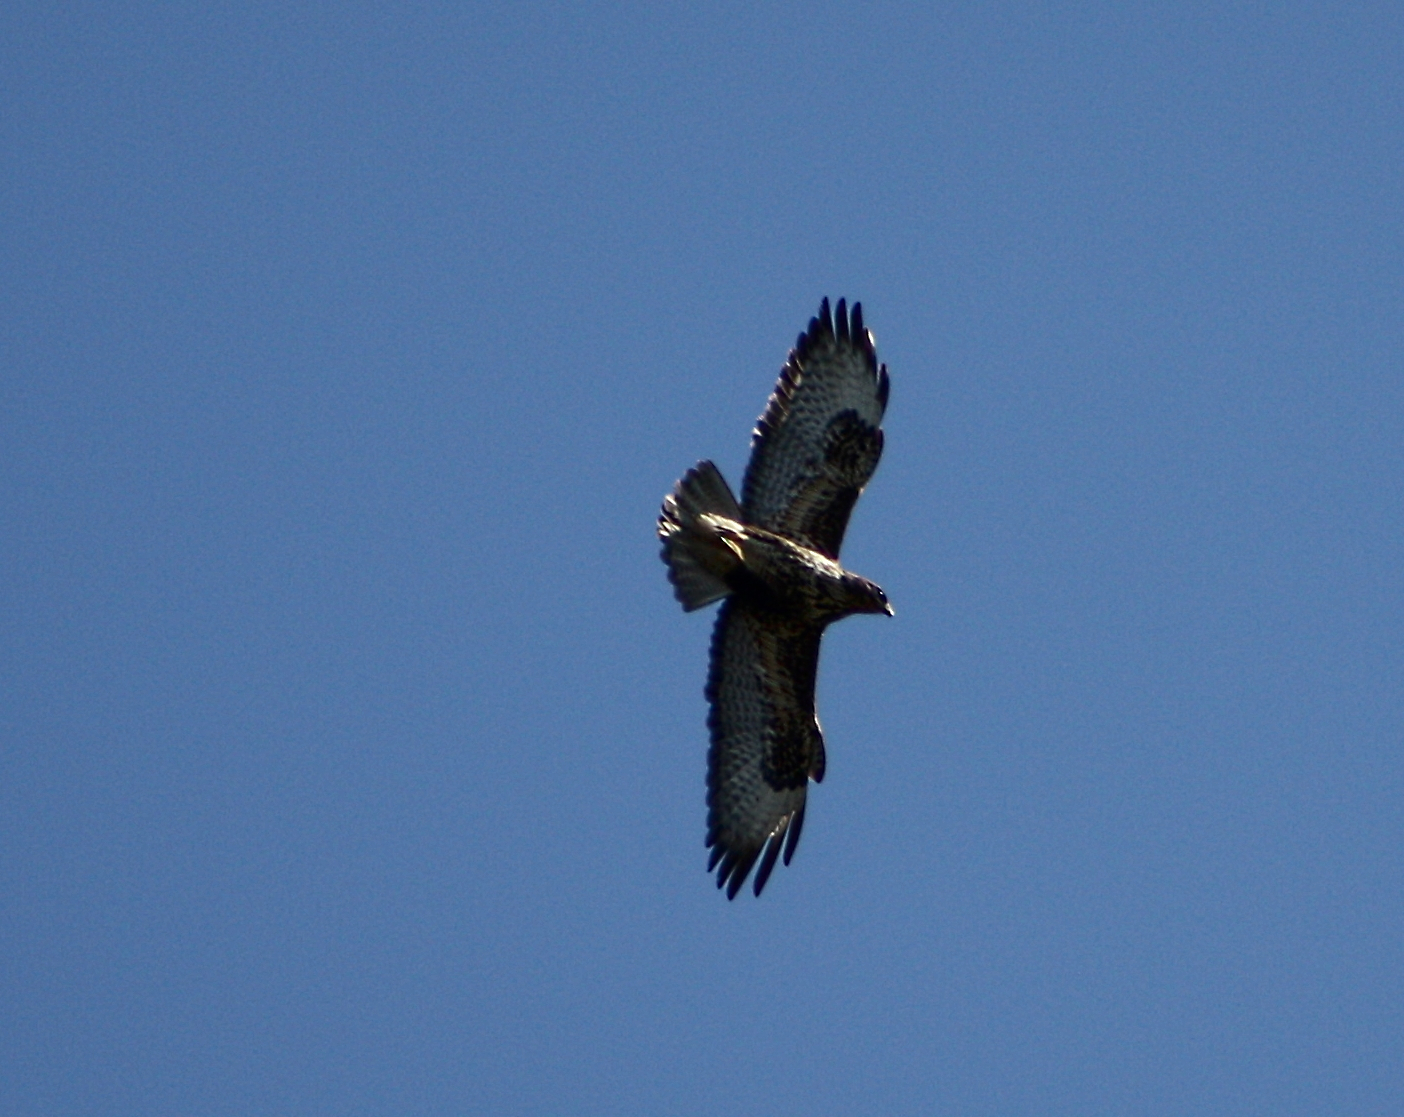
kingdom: Animalia
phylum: Chordata
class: Aves
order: Accipitriformes
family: Accipitridae
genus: Buteo
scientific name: Buteo buteo
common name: Common buzzard
